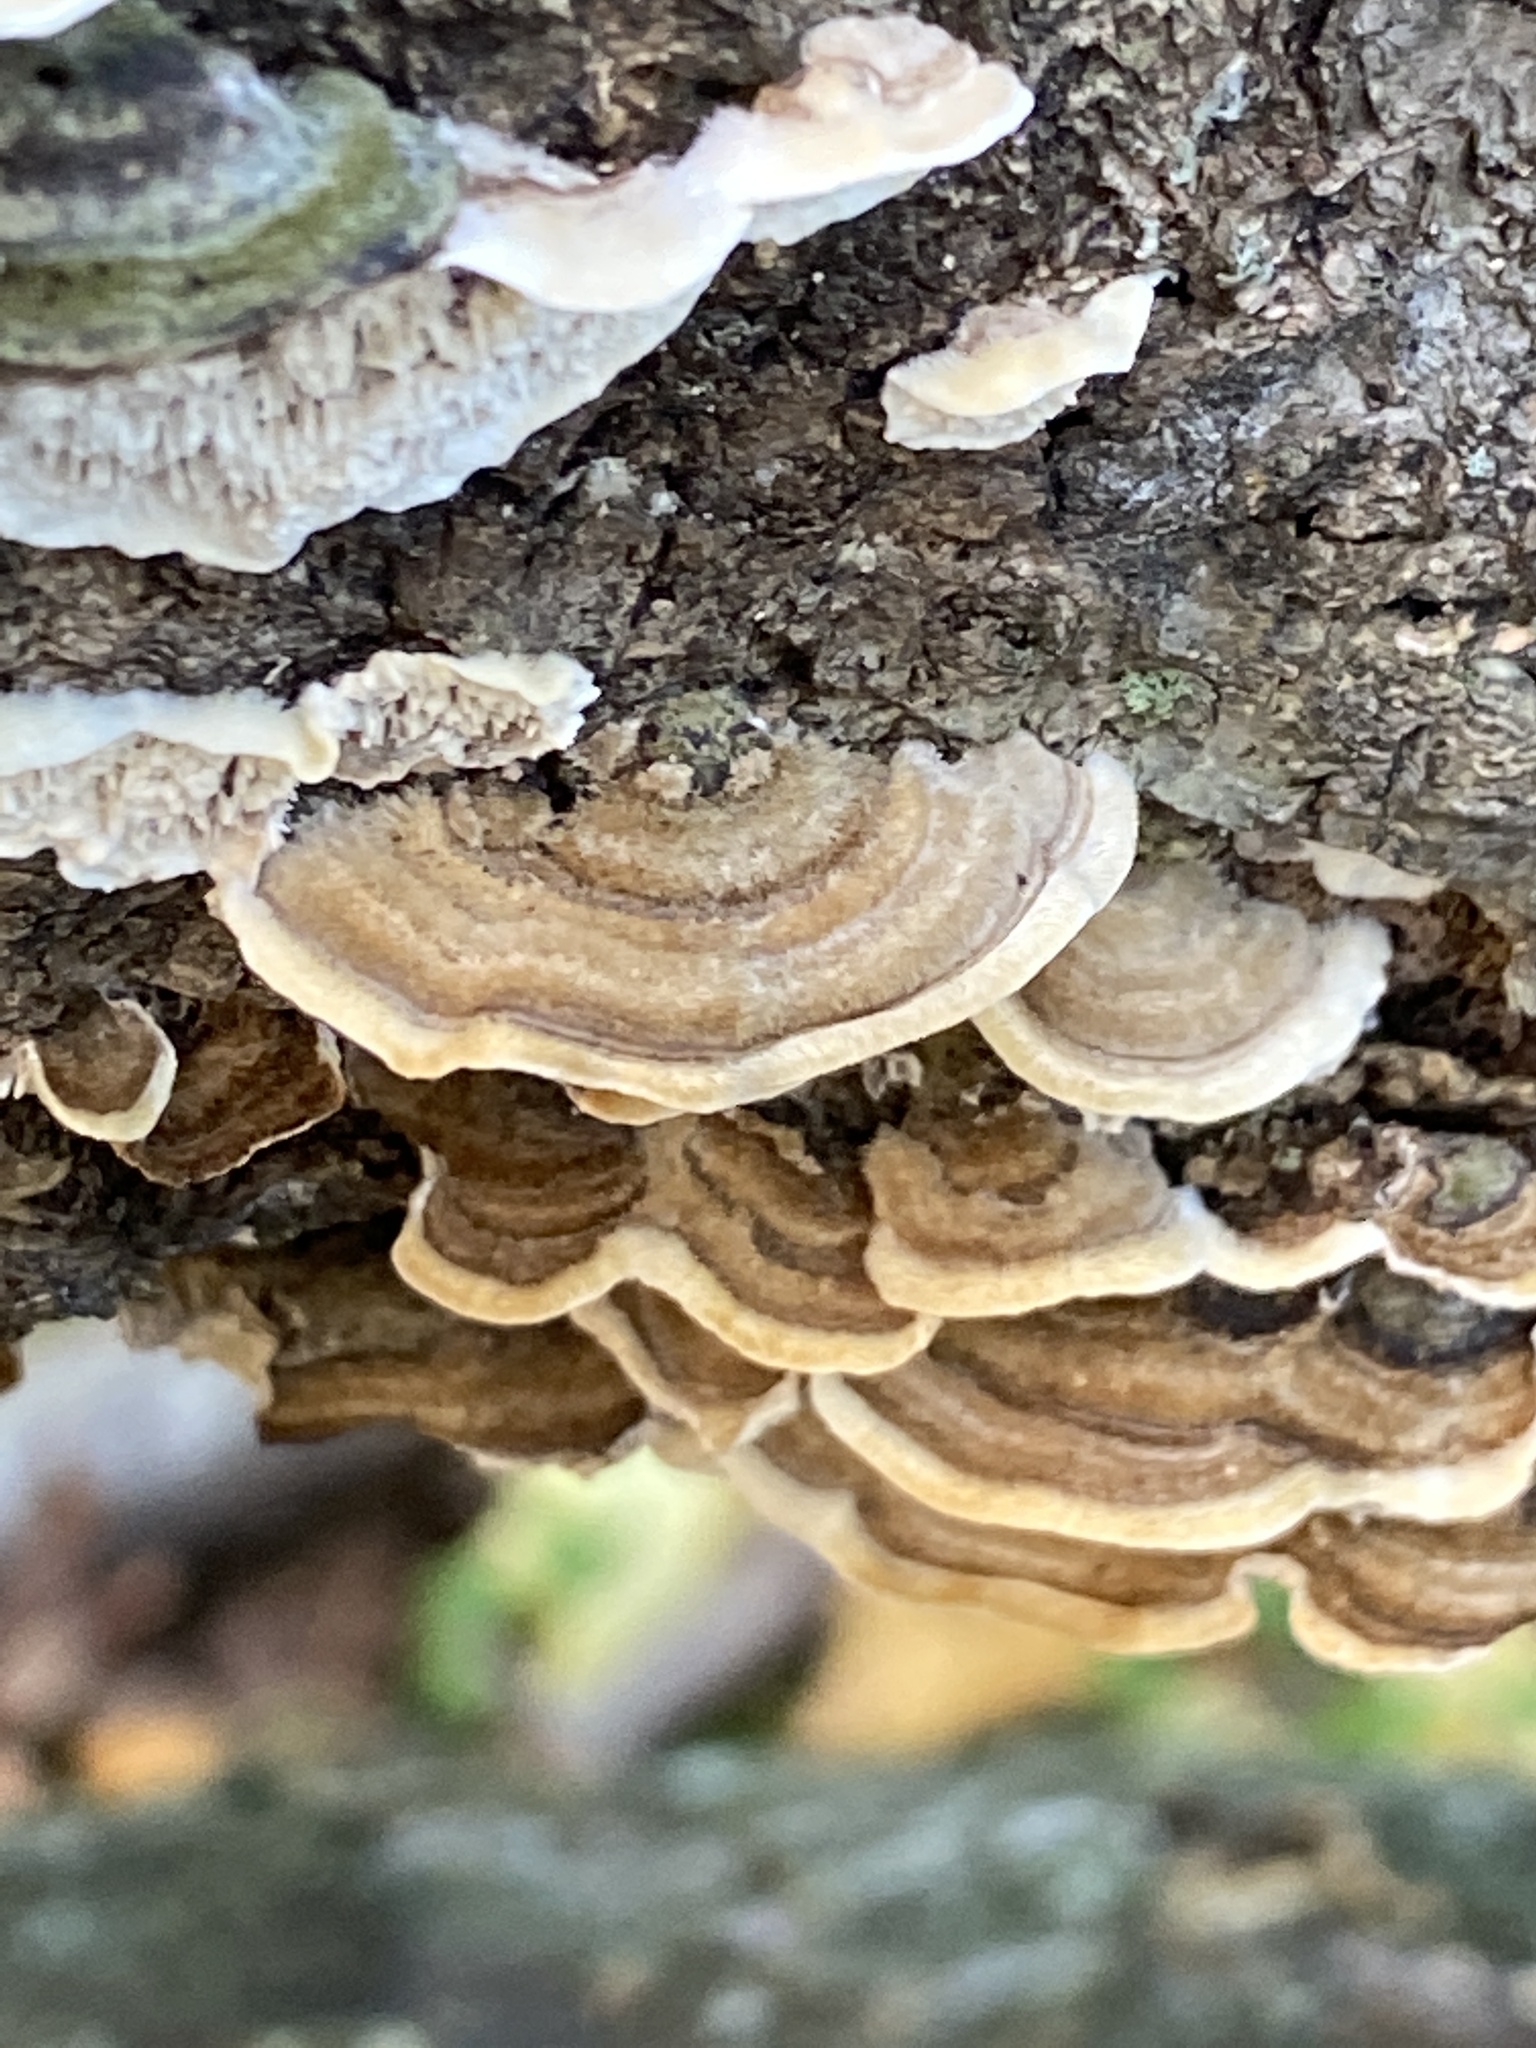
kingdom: Fungi
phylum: Basidiomycota
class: Agaricomycetes
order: Polyporales
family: Cerrenaceae
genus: Cerrena
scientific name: Cerrena unicolor
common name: Mossy maze polypore
